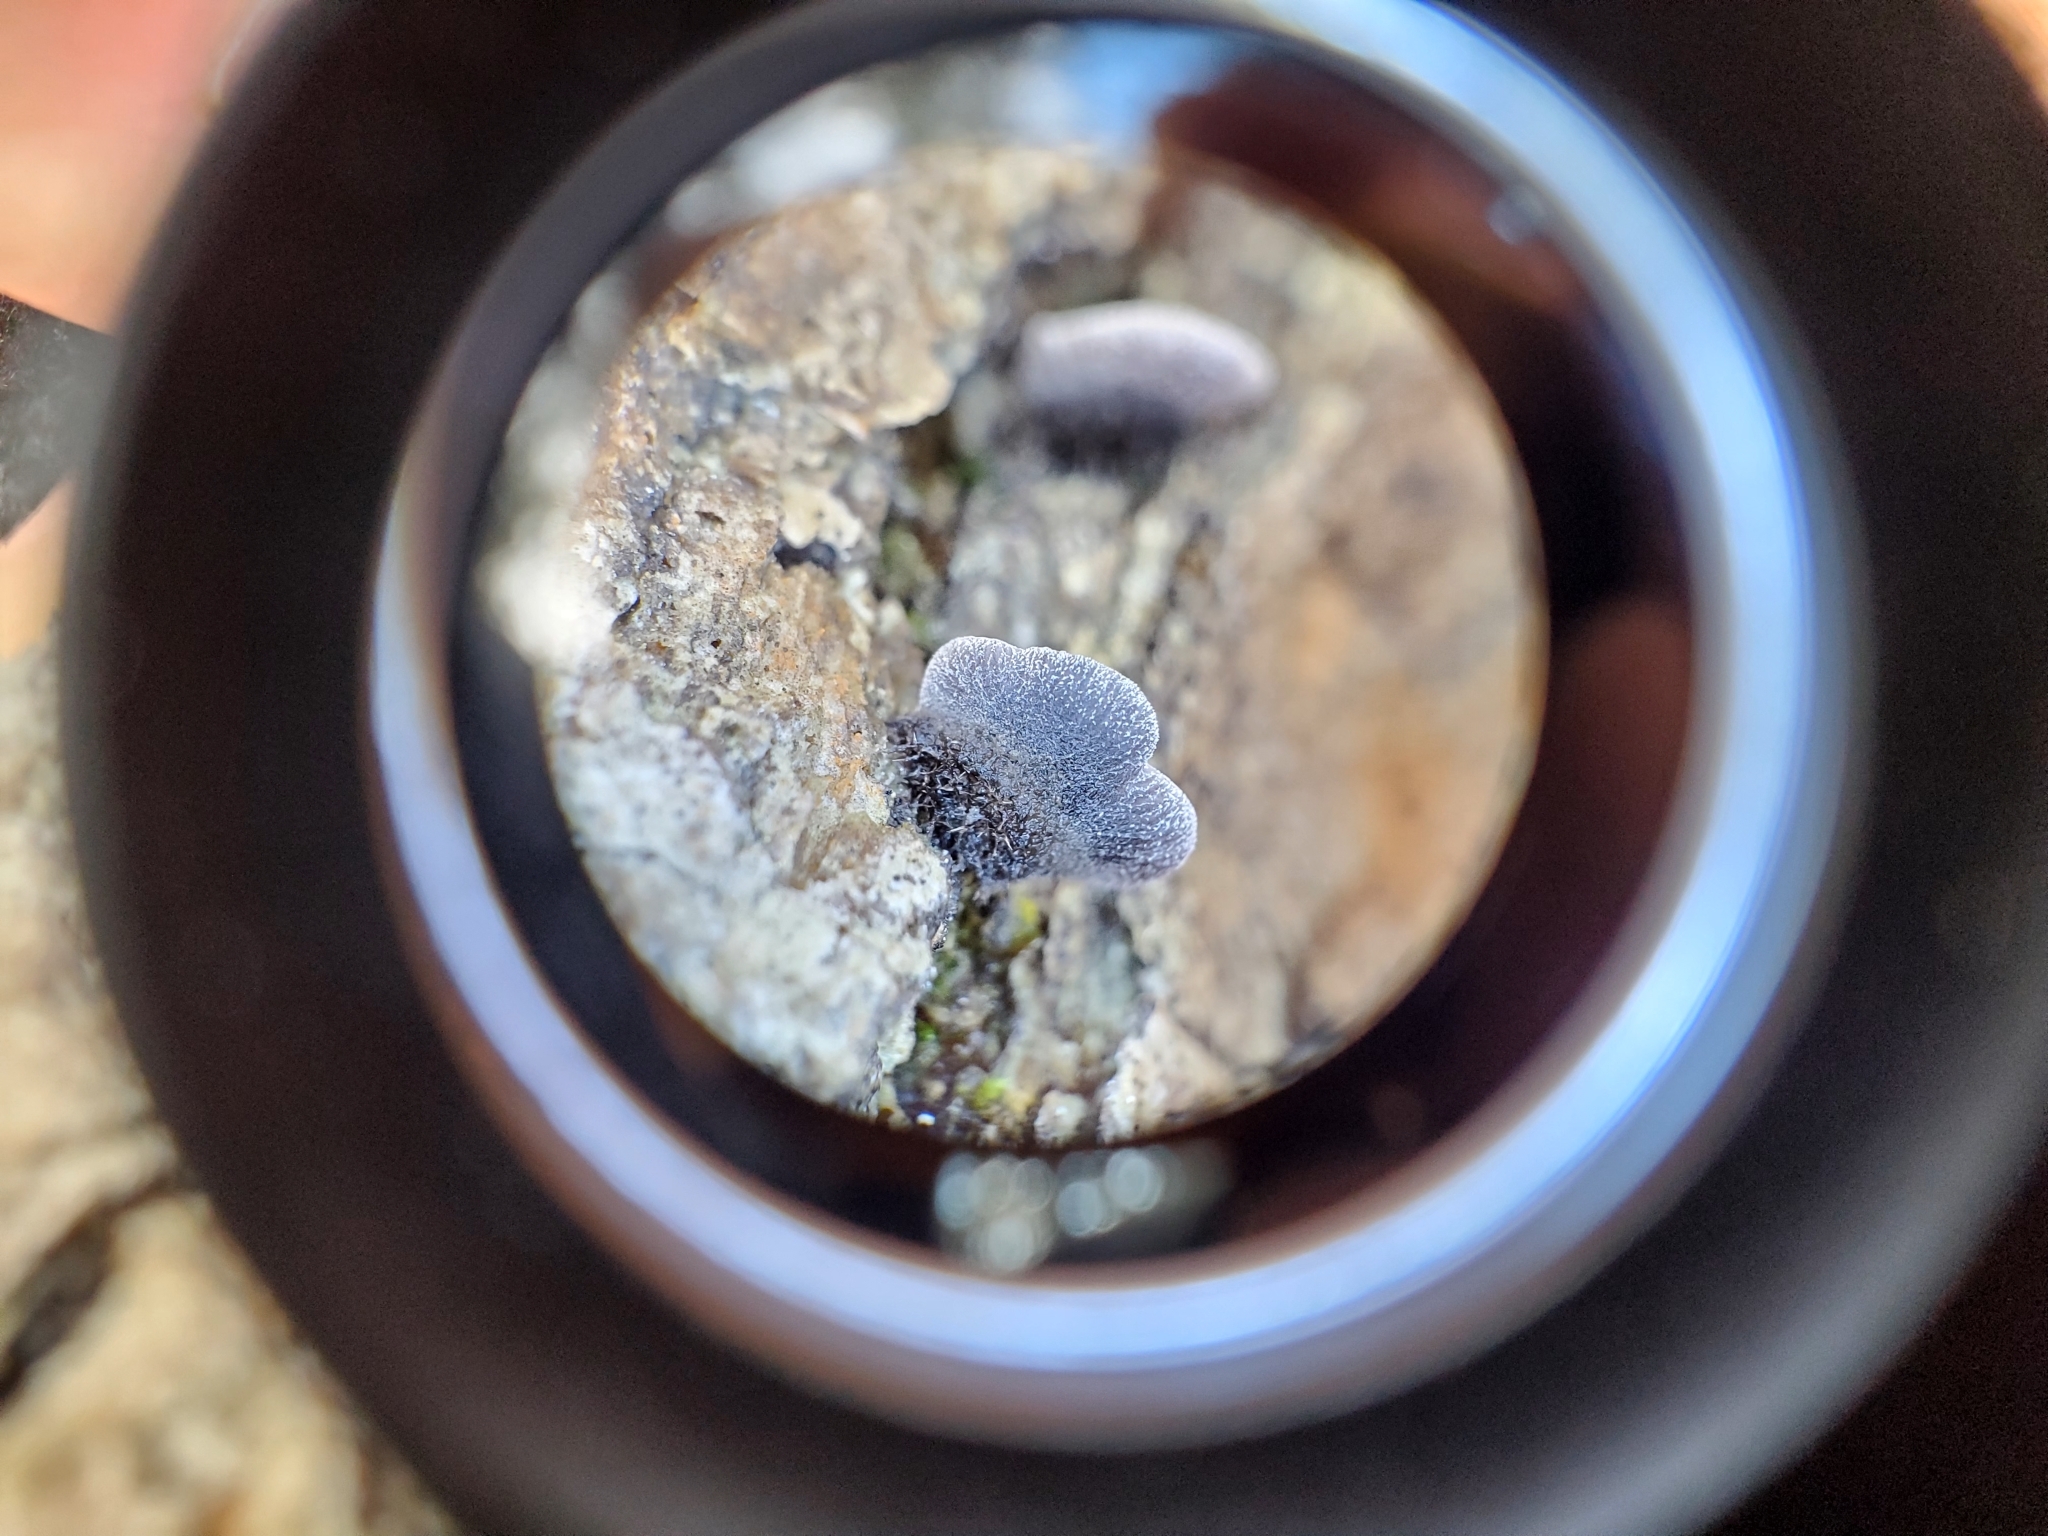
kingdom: Fungi
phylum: Basidiomycota
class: Agaricomycetes
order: Agaricales
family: Pleurotaceae
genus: Resupinatus
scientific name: Resupinatus applicatus
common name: Smoked oysterling
